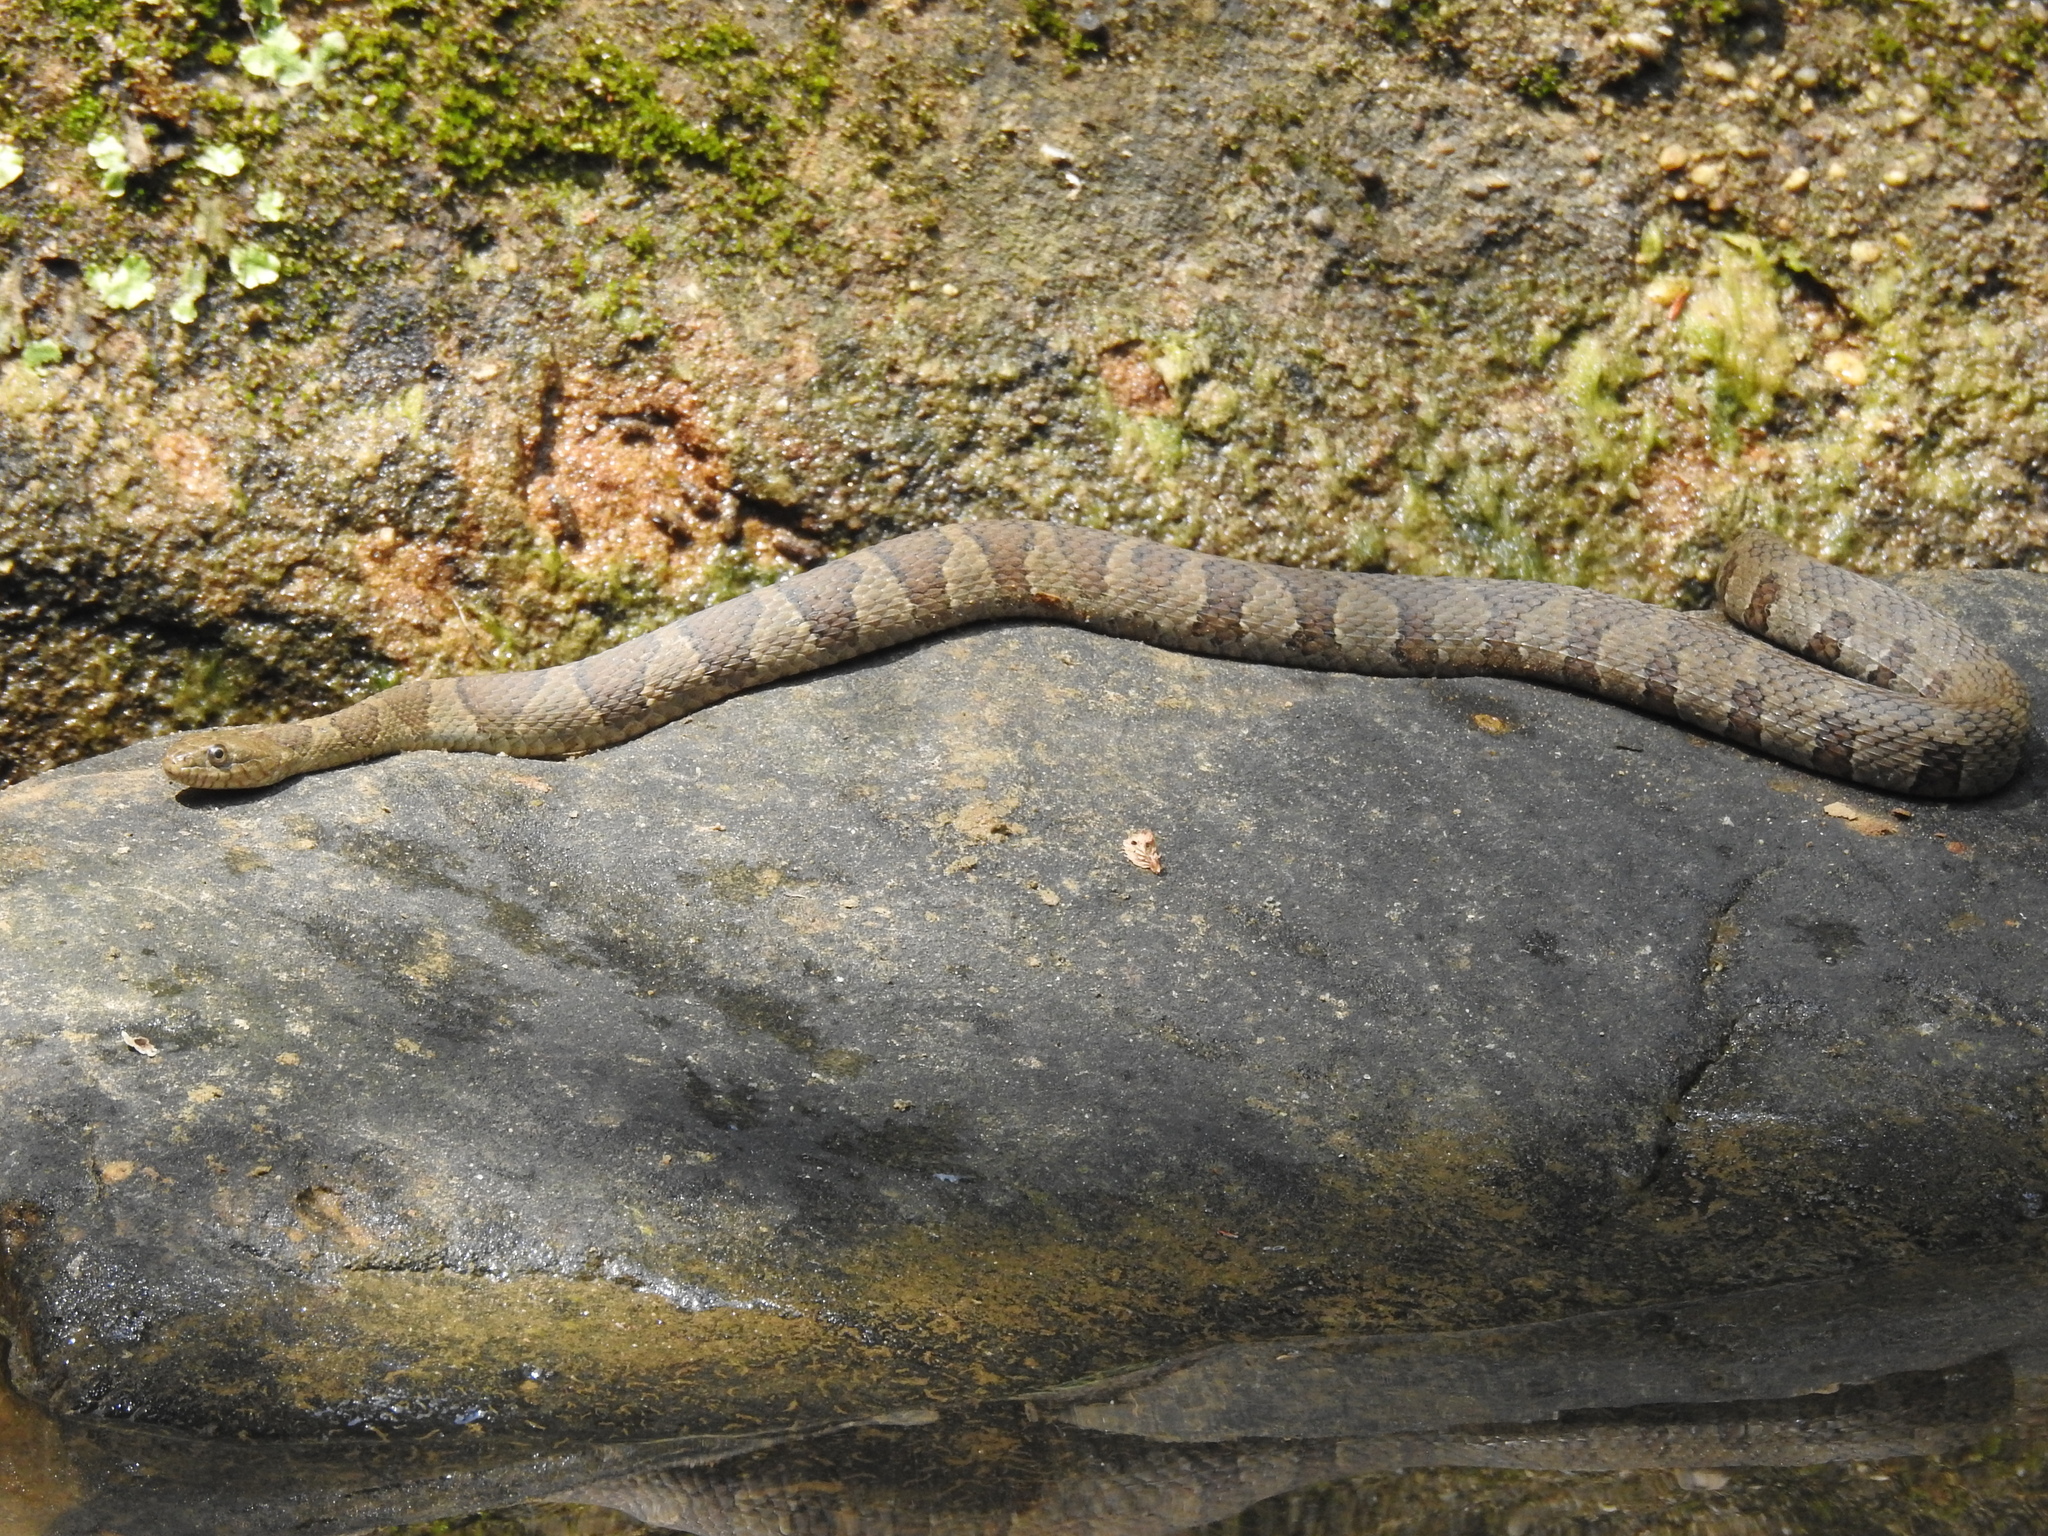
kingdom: Animalia
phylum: Chordata
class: Squamata
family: Colubridae
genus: Nerodia
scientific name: Nerodia sipedon
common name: Northern water snake
